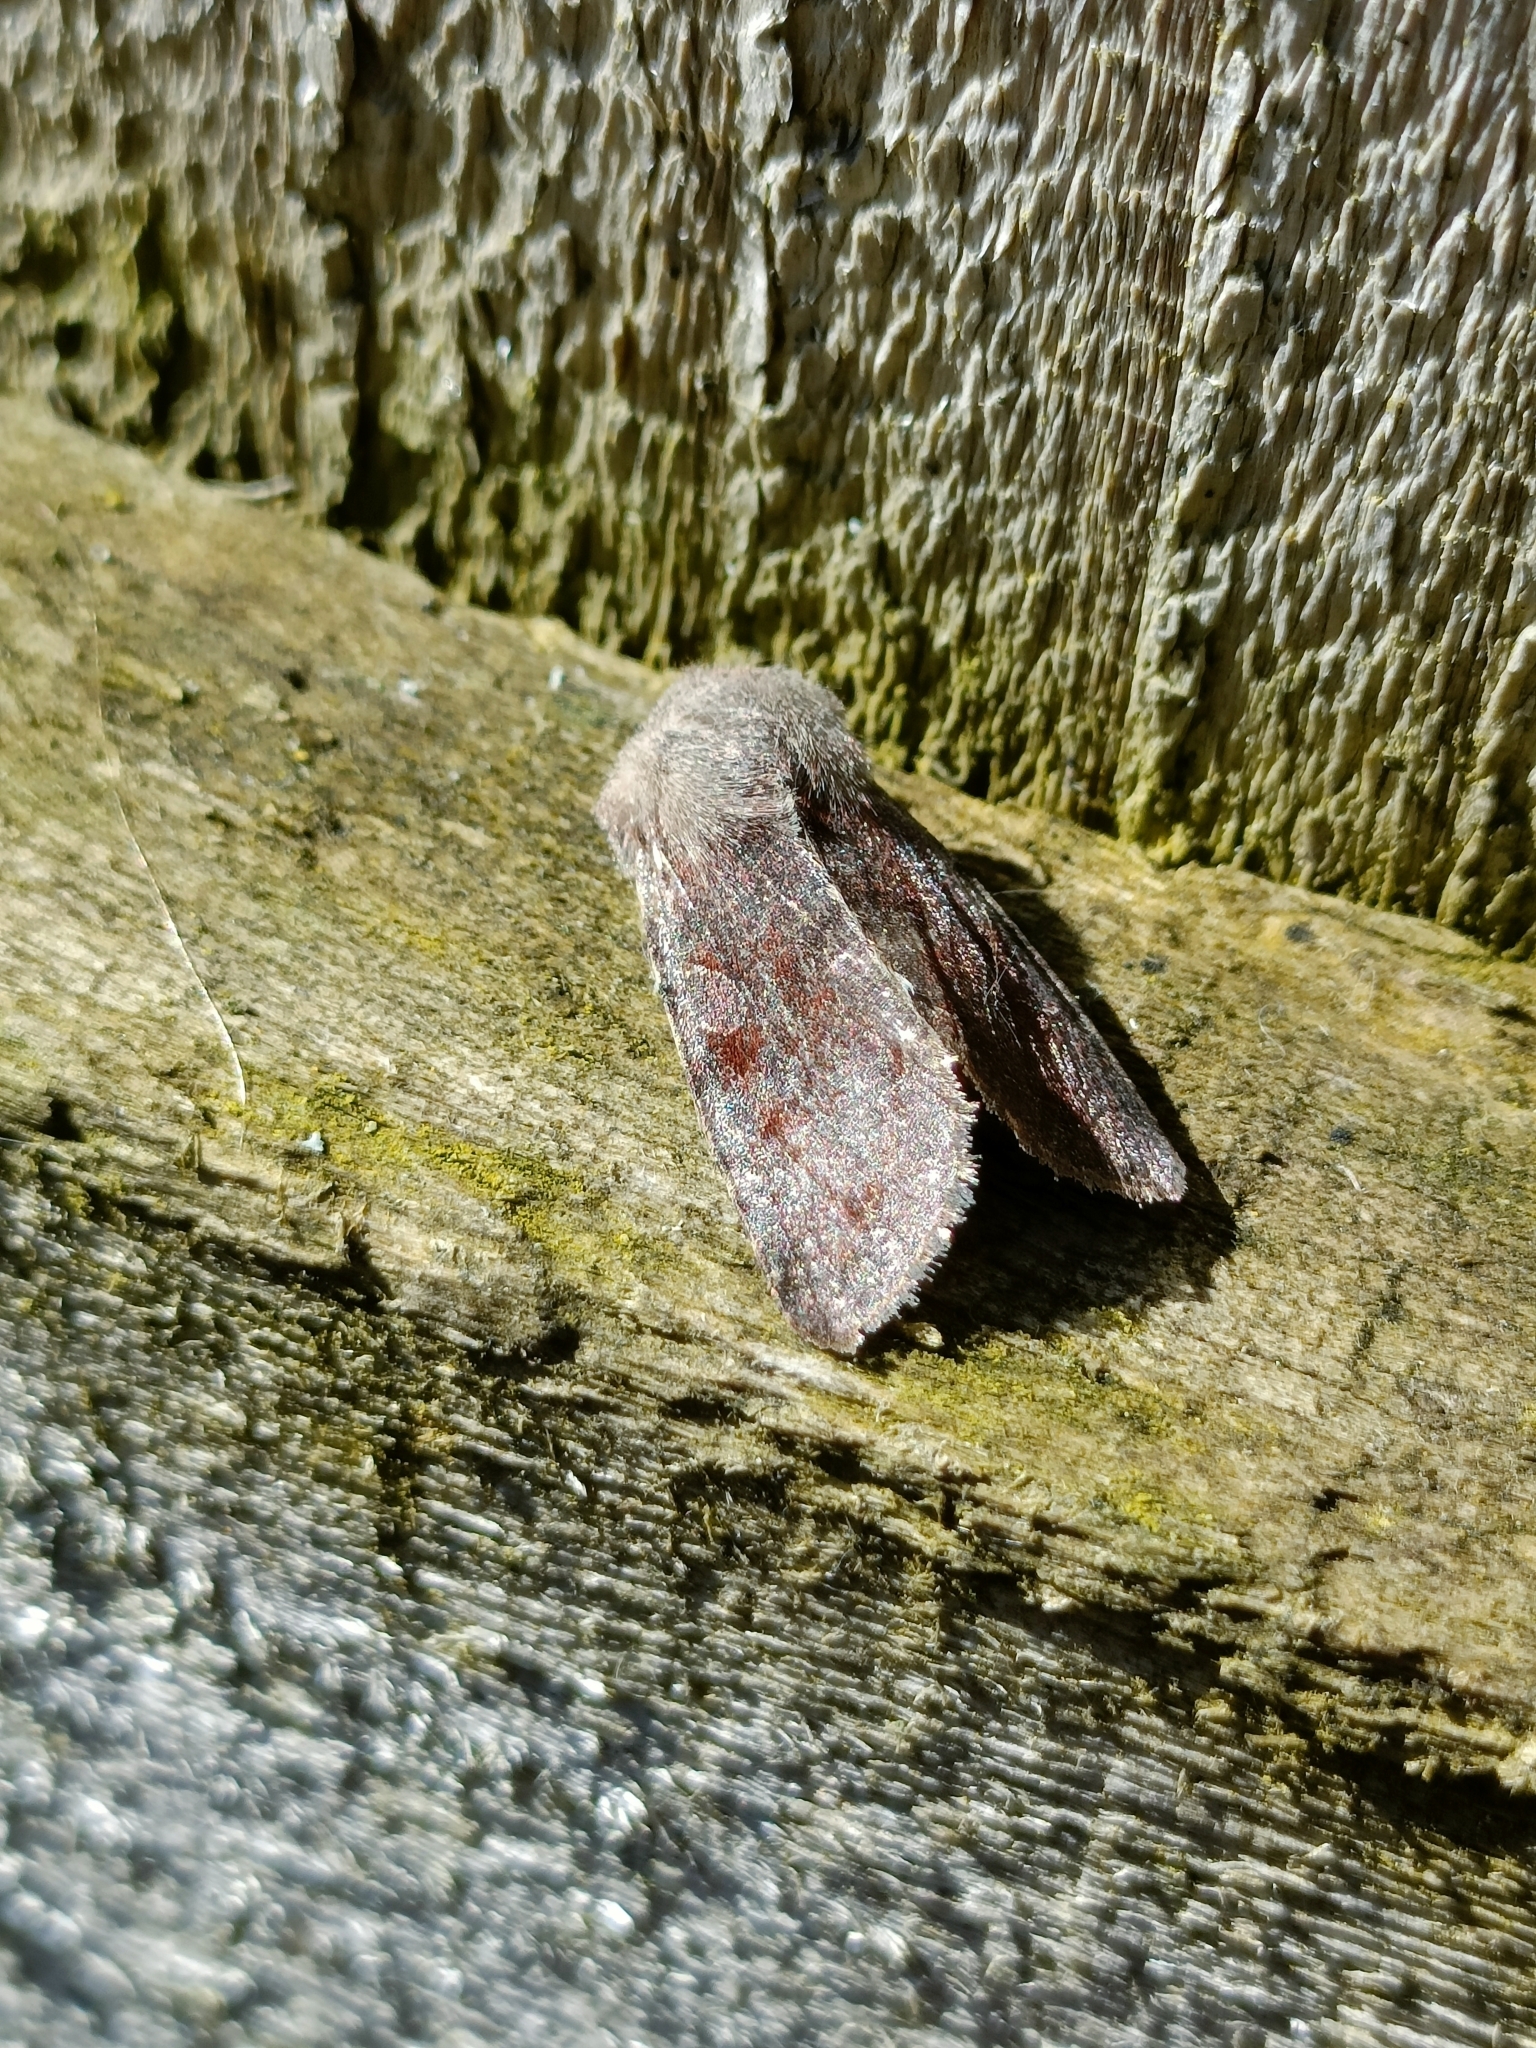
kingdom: Animalia
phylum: Arthropoda
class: Insecta
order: Lepidoptera
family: Noctuidae
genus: Orthosia
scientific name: Orthosia incerta
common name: Clouded drab
